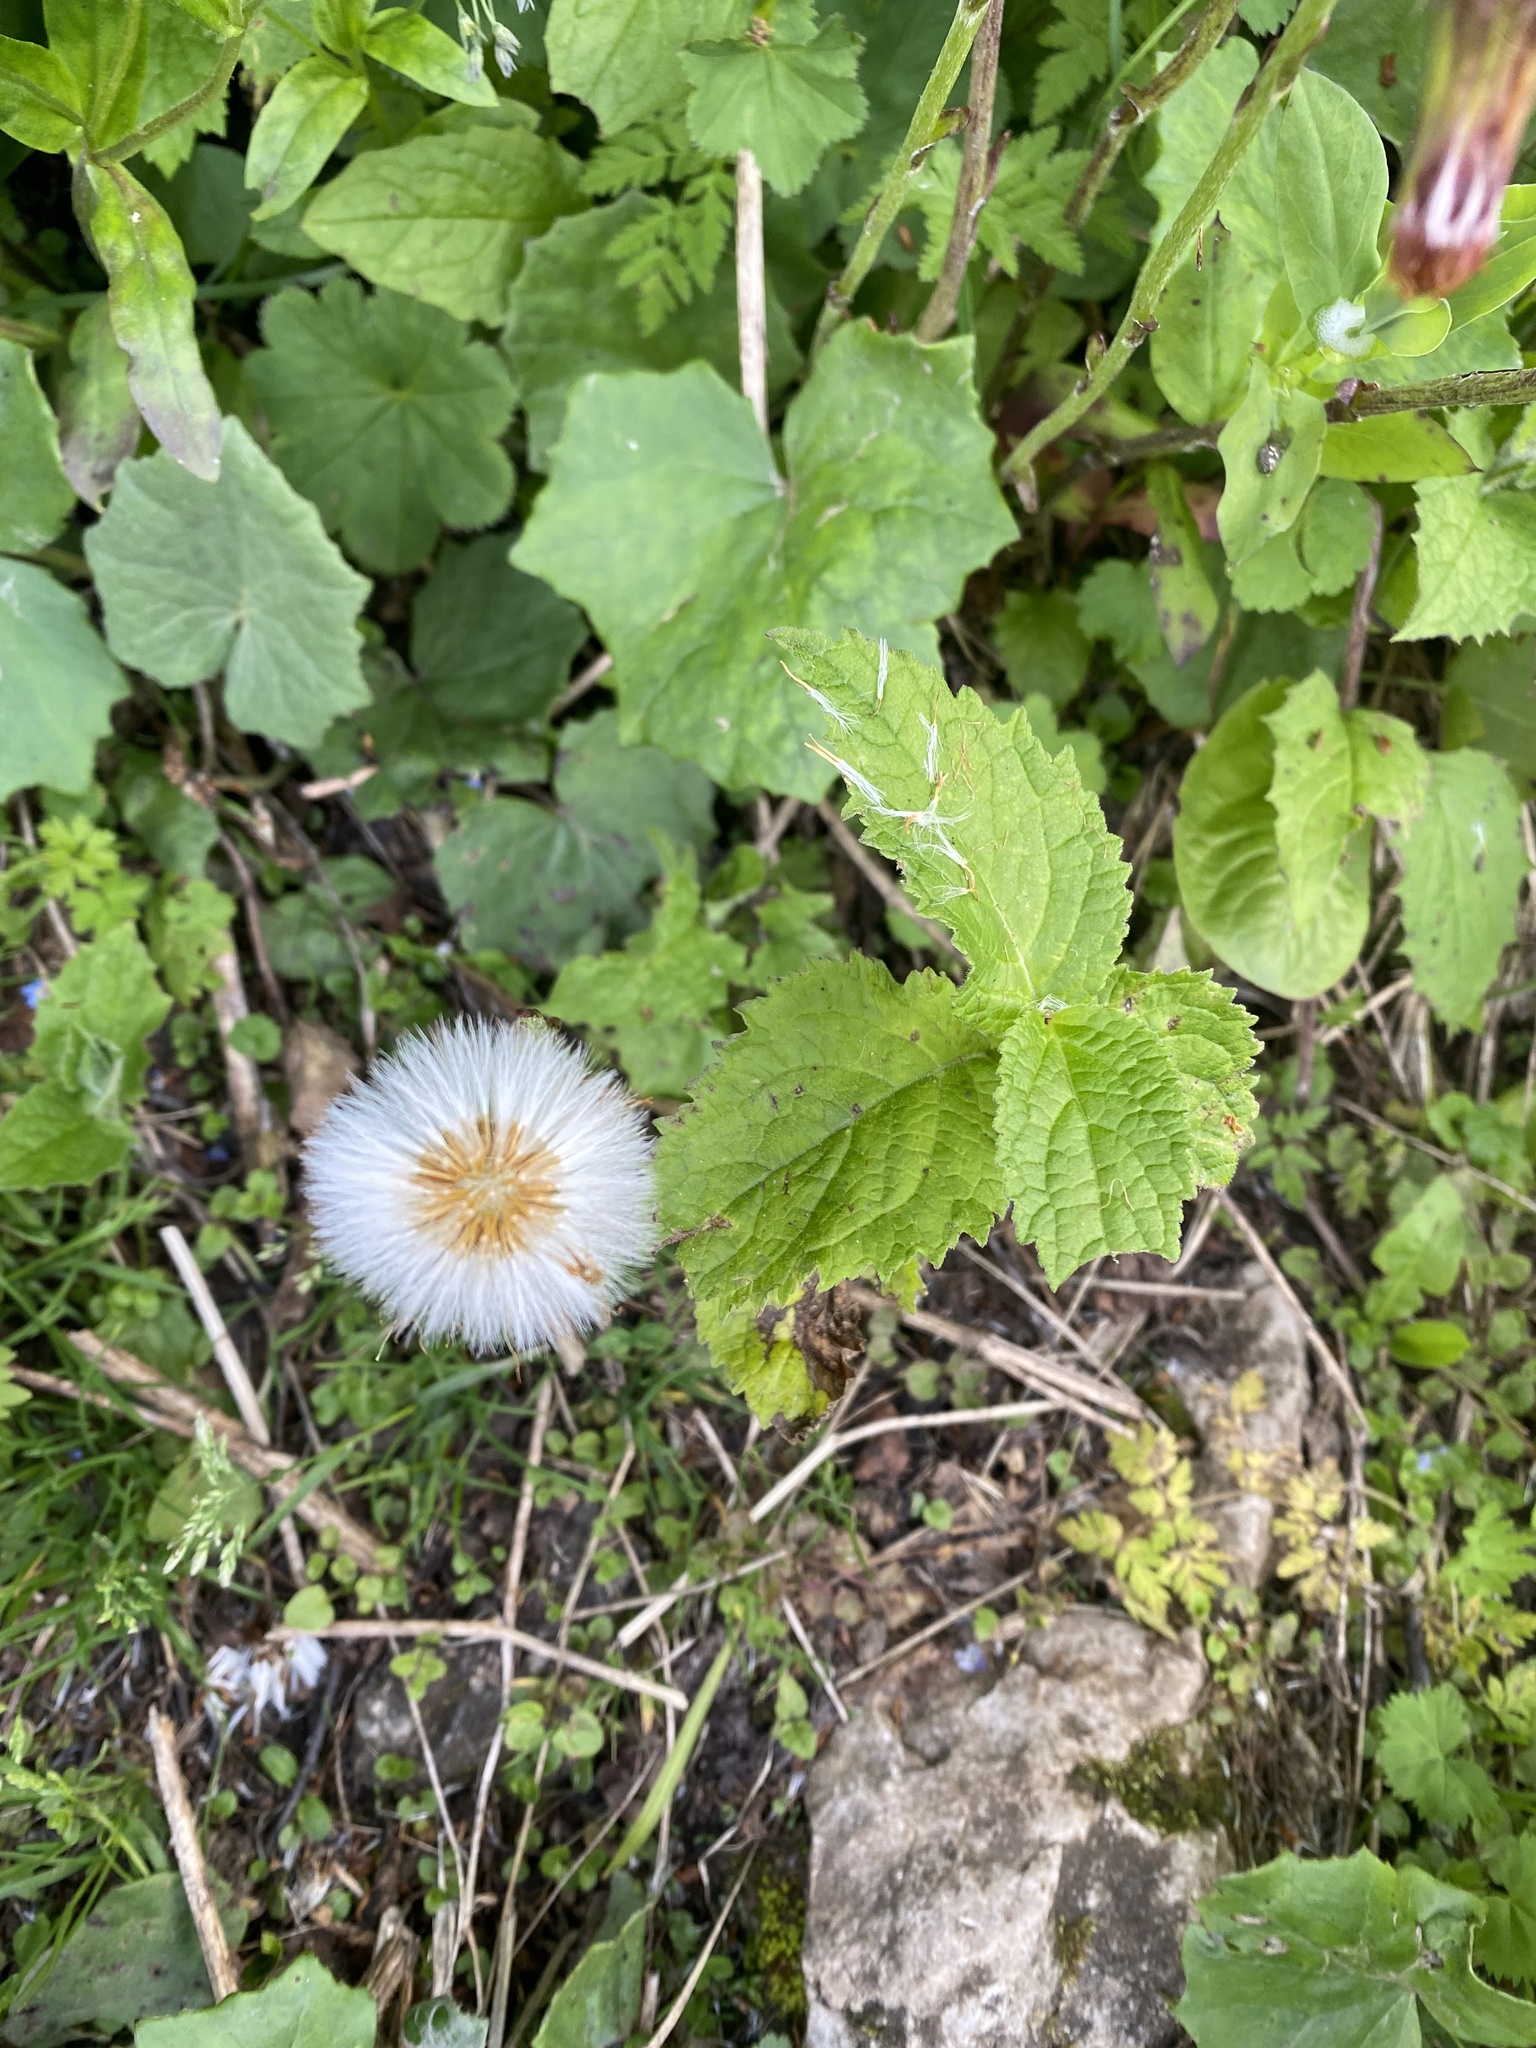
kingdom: Plantae
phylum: Tracheophyta
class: Magnoliopsida
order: Asterales
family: Asteraceae
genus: Tussilago
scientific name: Tussilago farfara
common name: Coltsfoot
